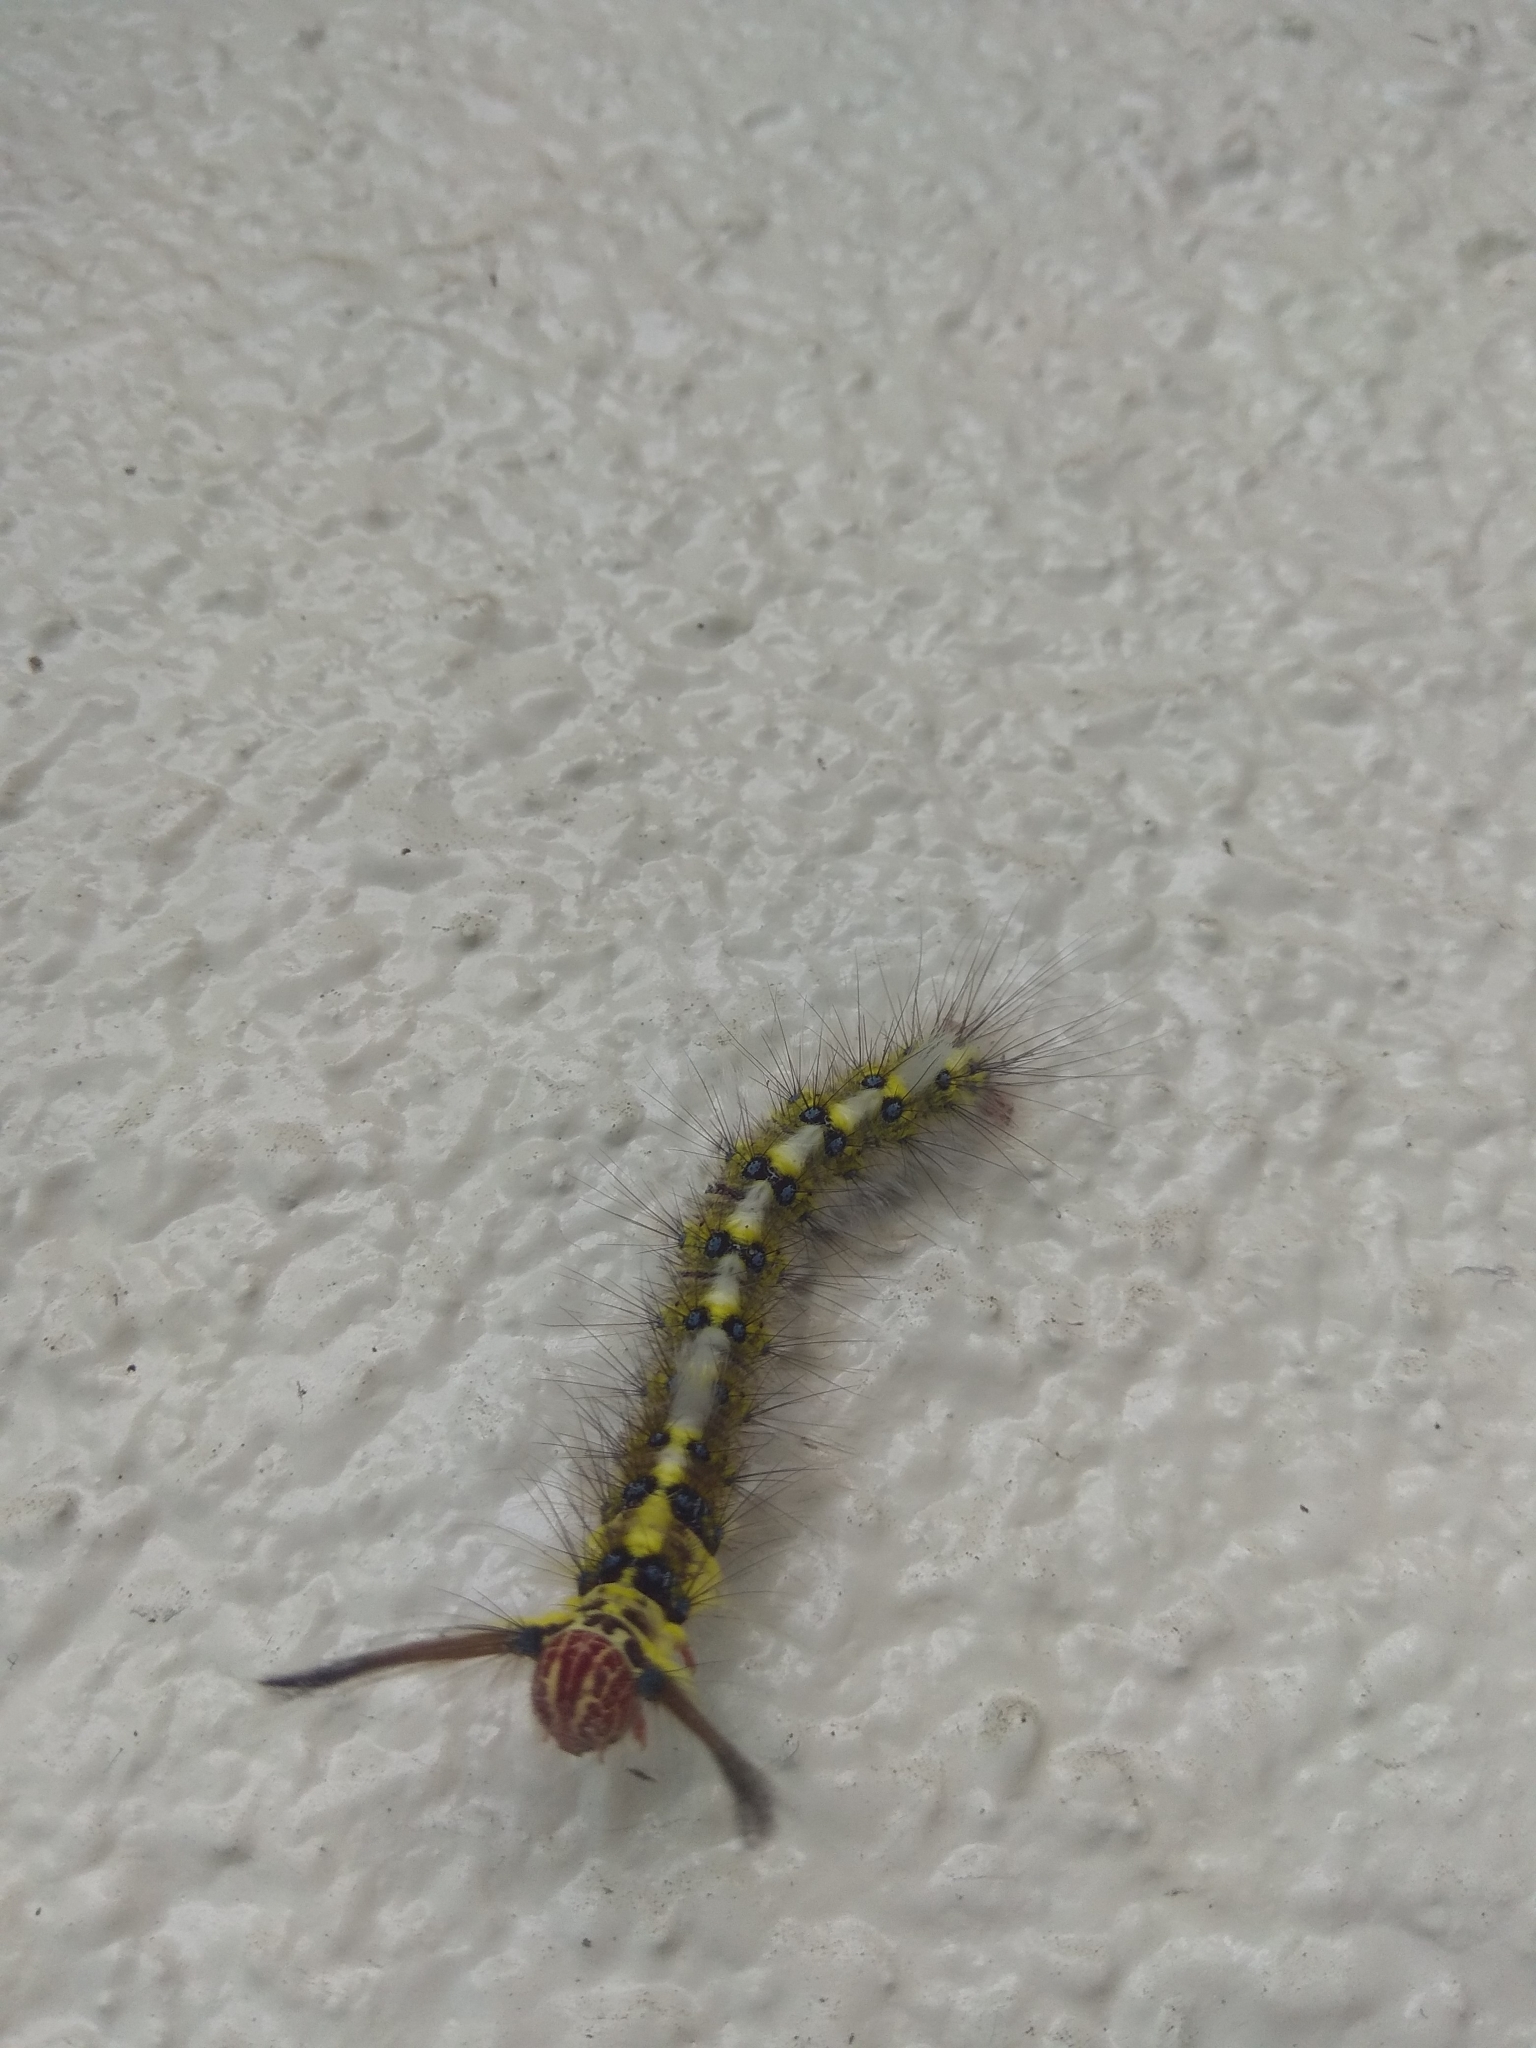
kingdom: Animalia
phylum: Arthropoda
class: Insecta
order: Lepidoptera
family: Lasiocampidae
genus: Trabala
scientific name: Trabala pallida
